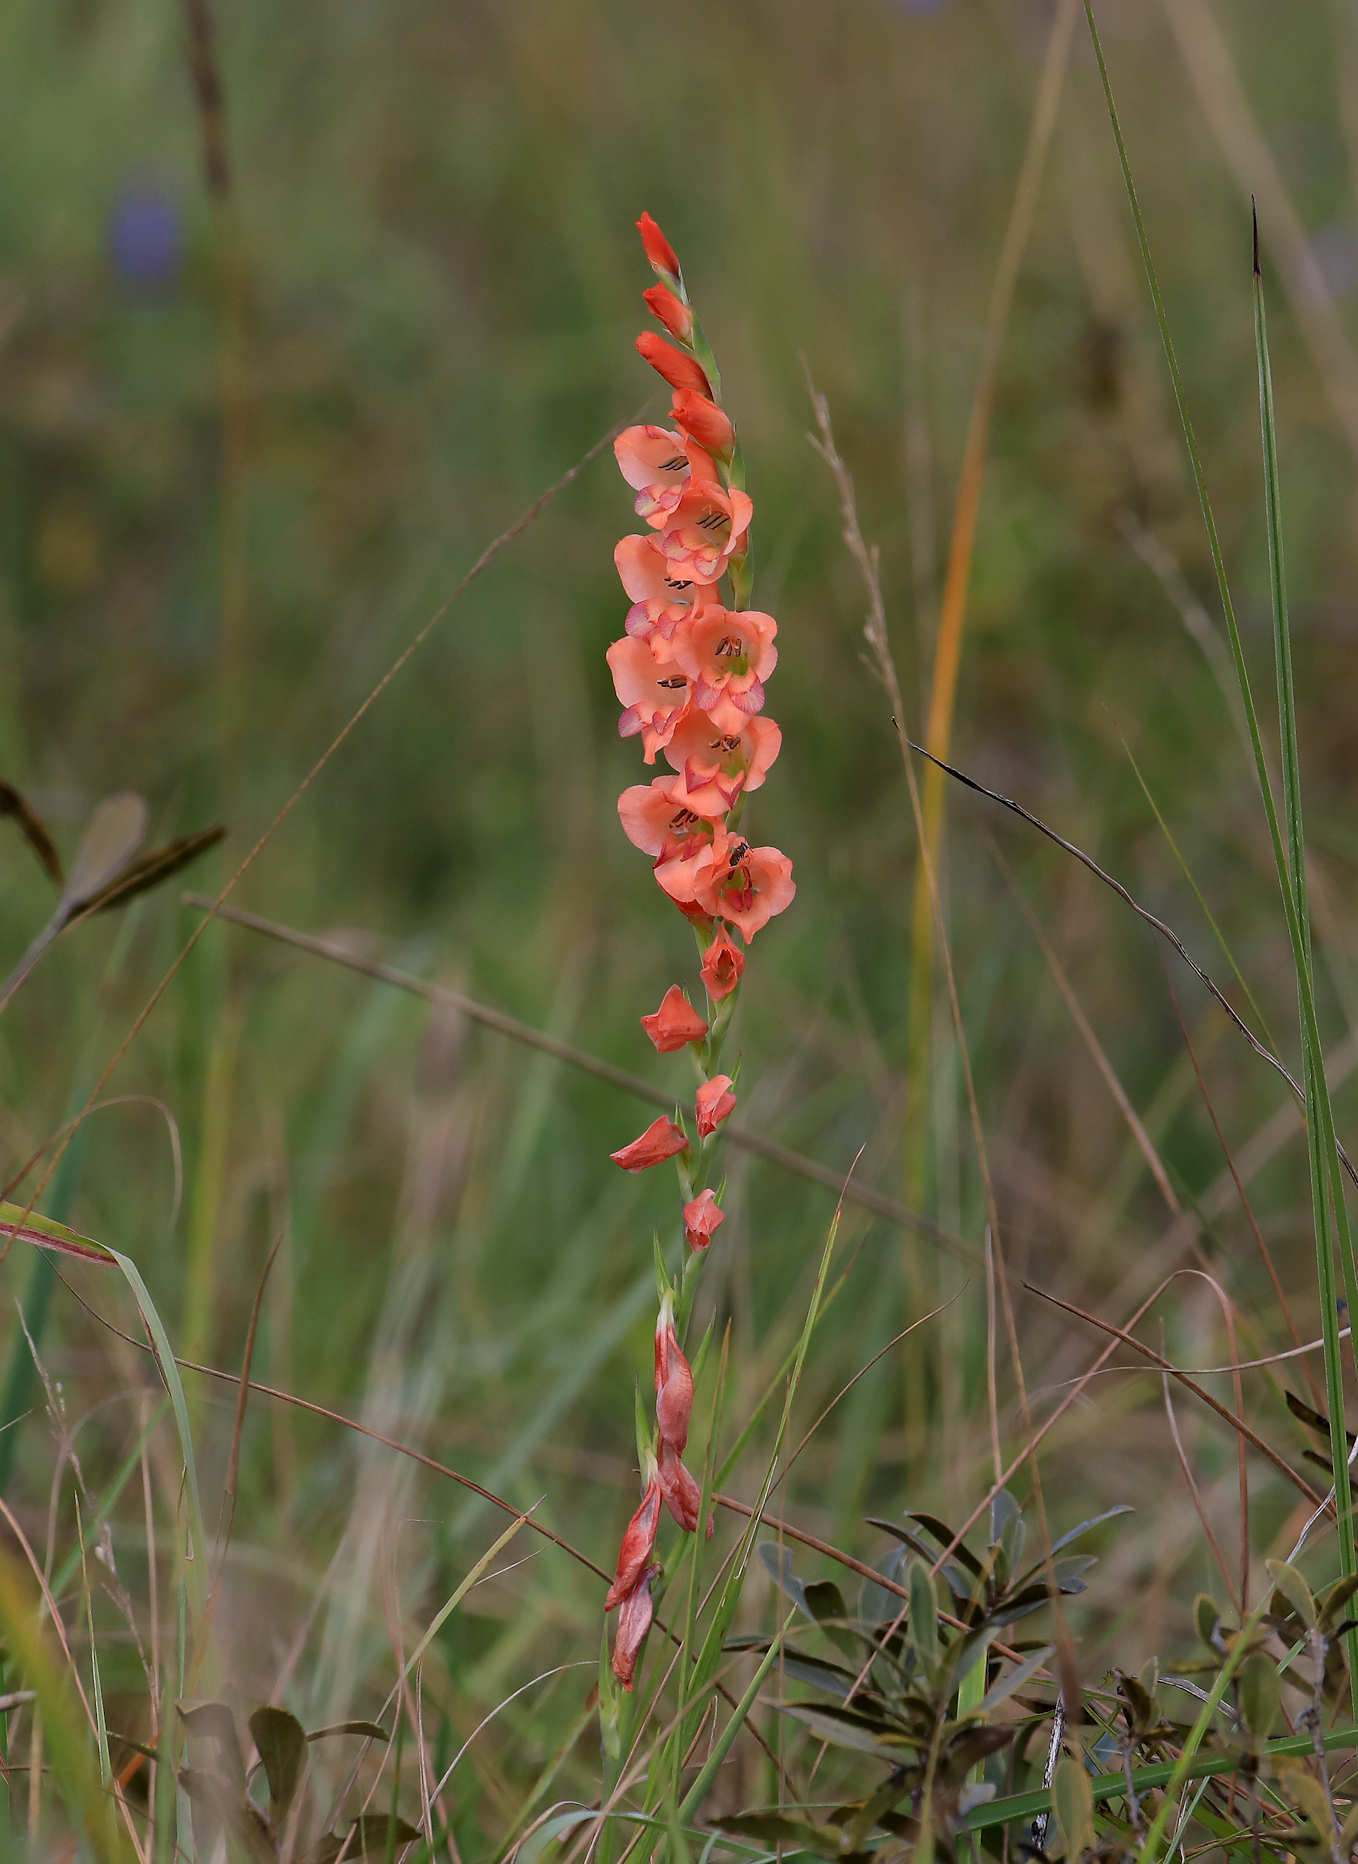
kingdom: Plantae
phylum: Tracheophyta
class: Liliopsida
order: Asparagales
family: Iridaceae
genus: Gladiolus
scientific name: Gladiolus densiflorus
